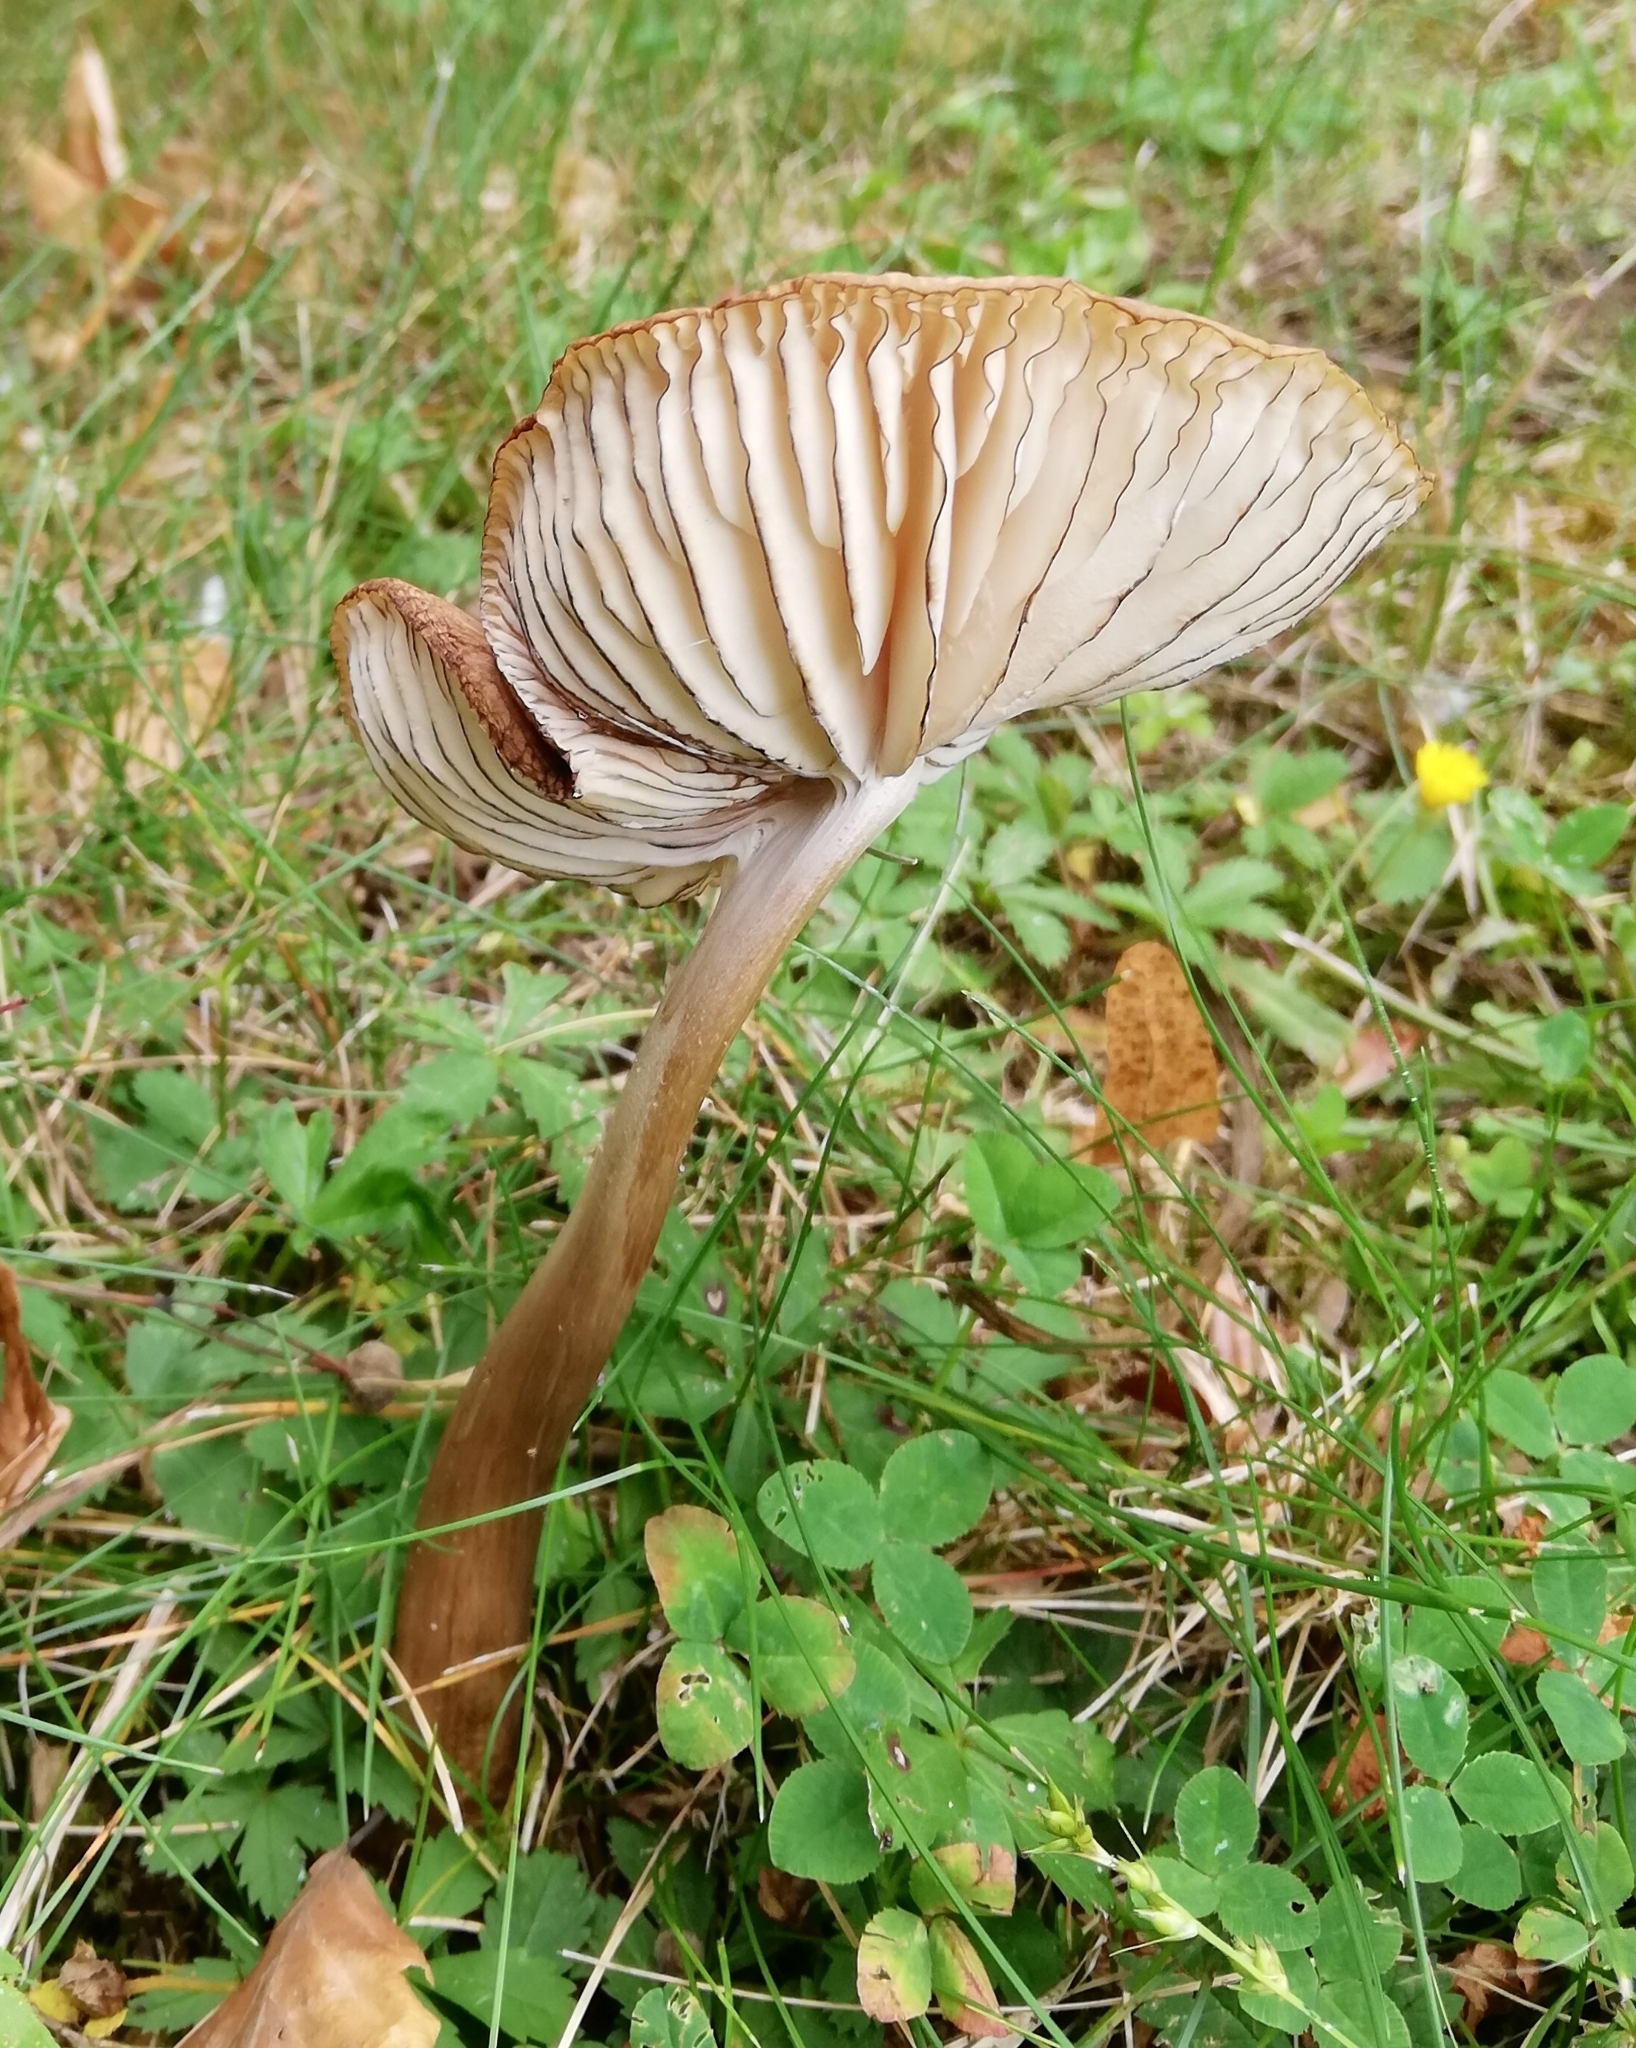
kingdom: Fungi
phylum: Basidiomycota
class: Agaricomycetes
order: Agaricales
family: Physalacriaceae
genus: Hymenopellis
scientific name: Hymenopellis radicata
